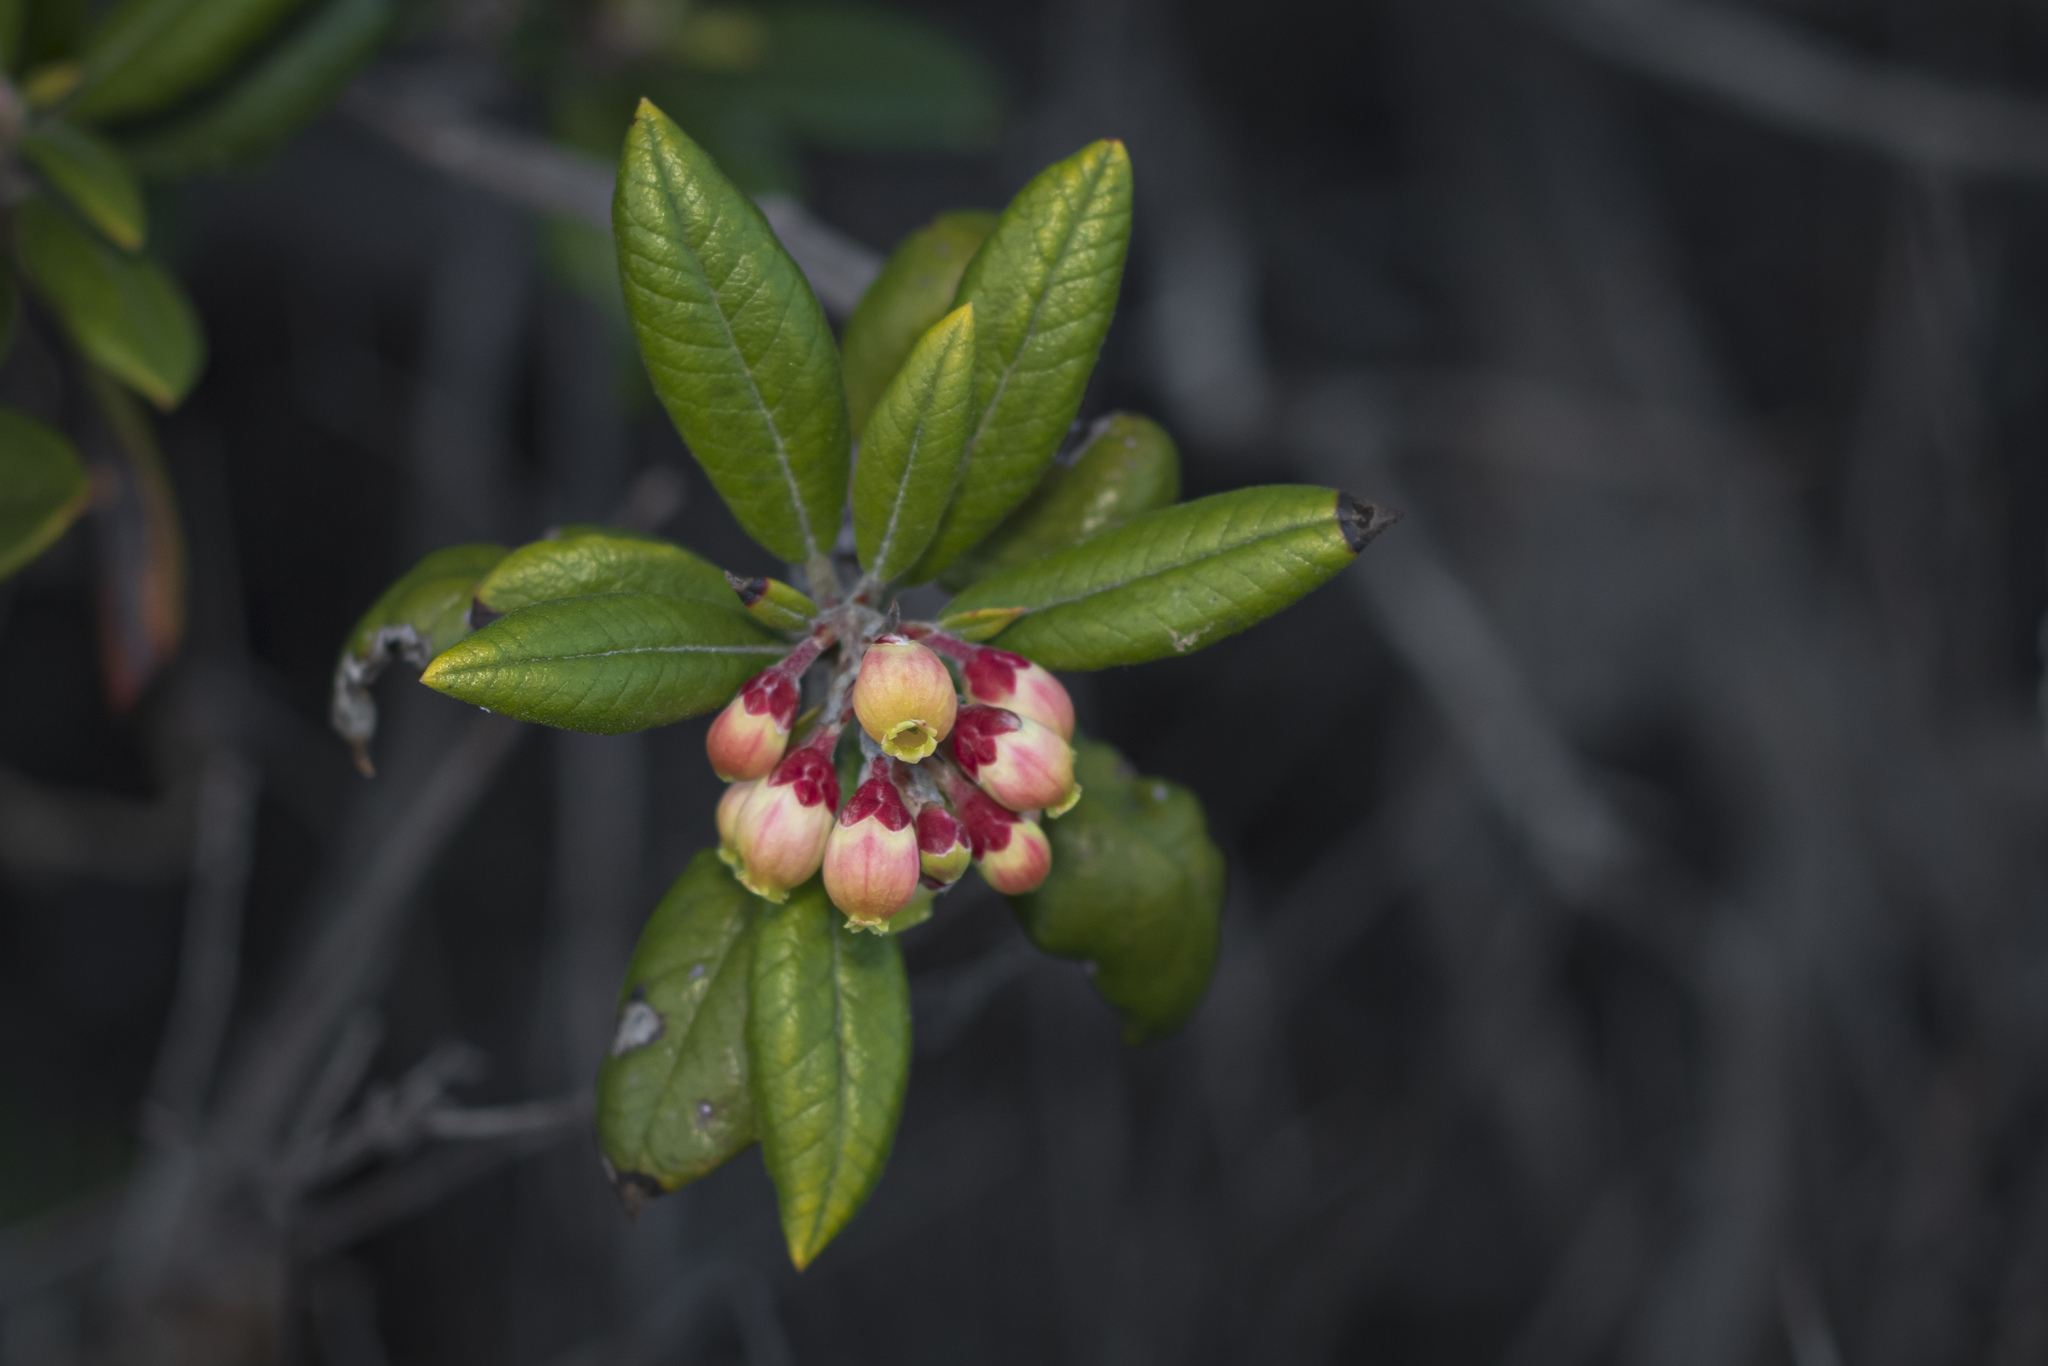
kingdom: Plantae
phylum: Tracheophyta
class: Magnoliopsida
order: Ericales
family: Ericaceae
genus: Arctostaphylos
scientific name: Arctostaphylos bicolor
